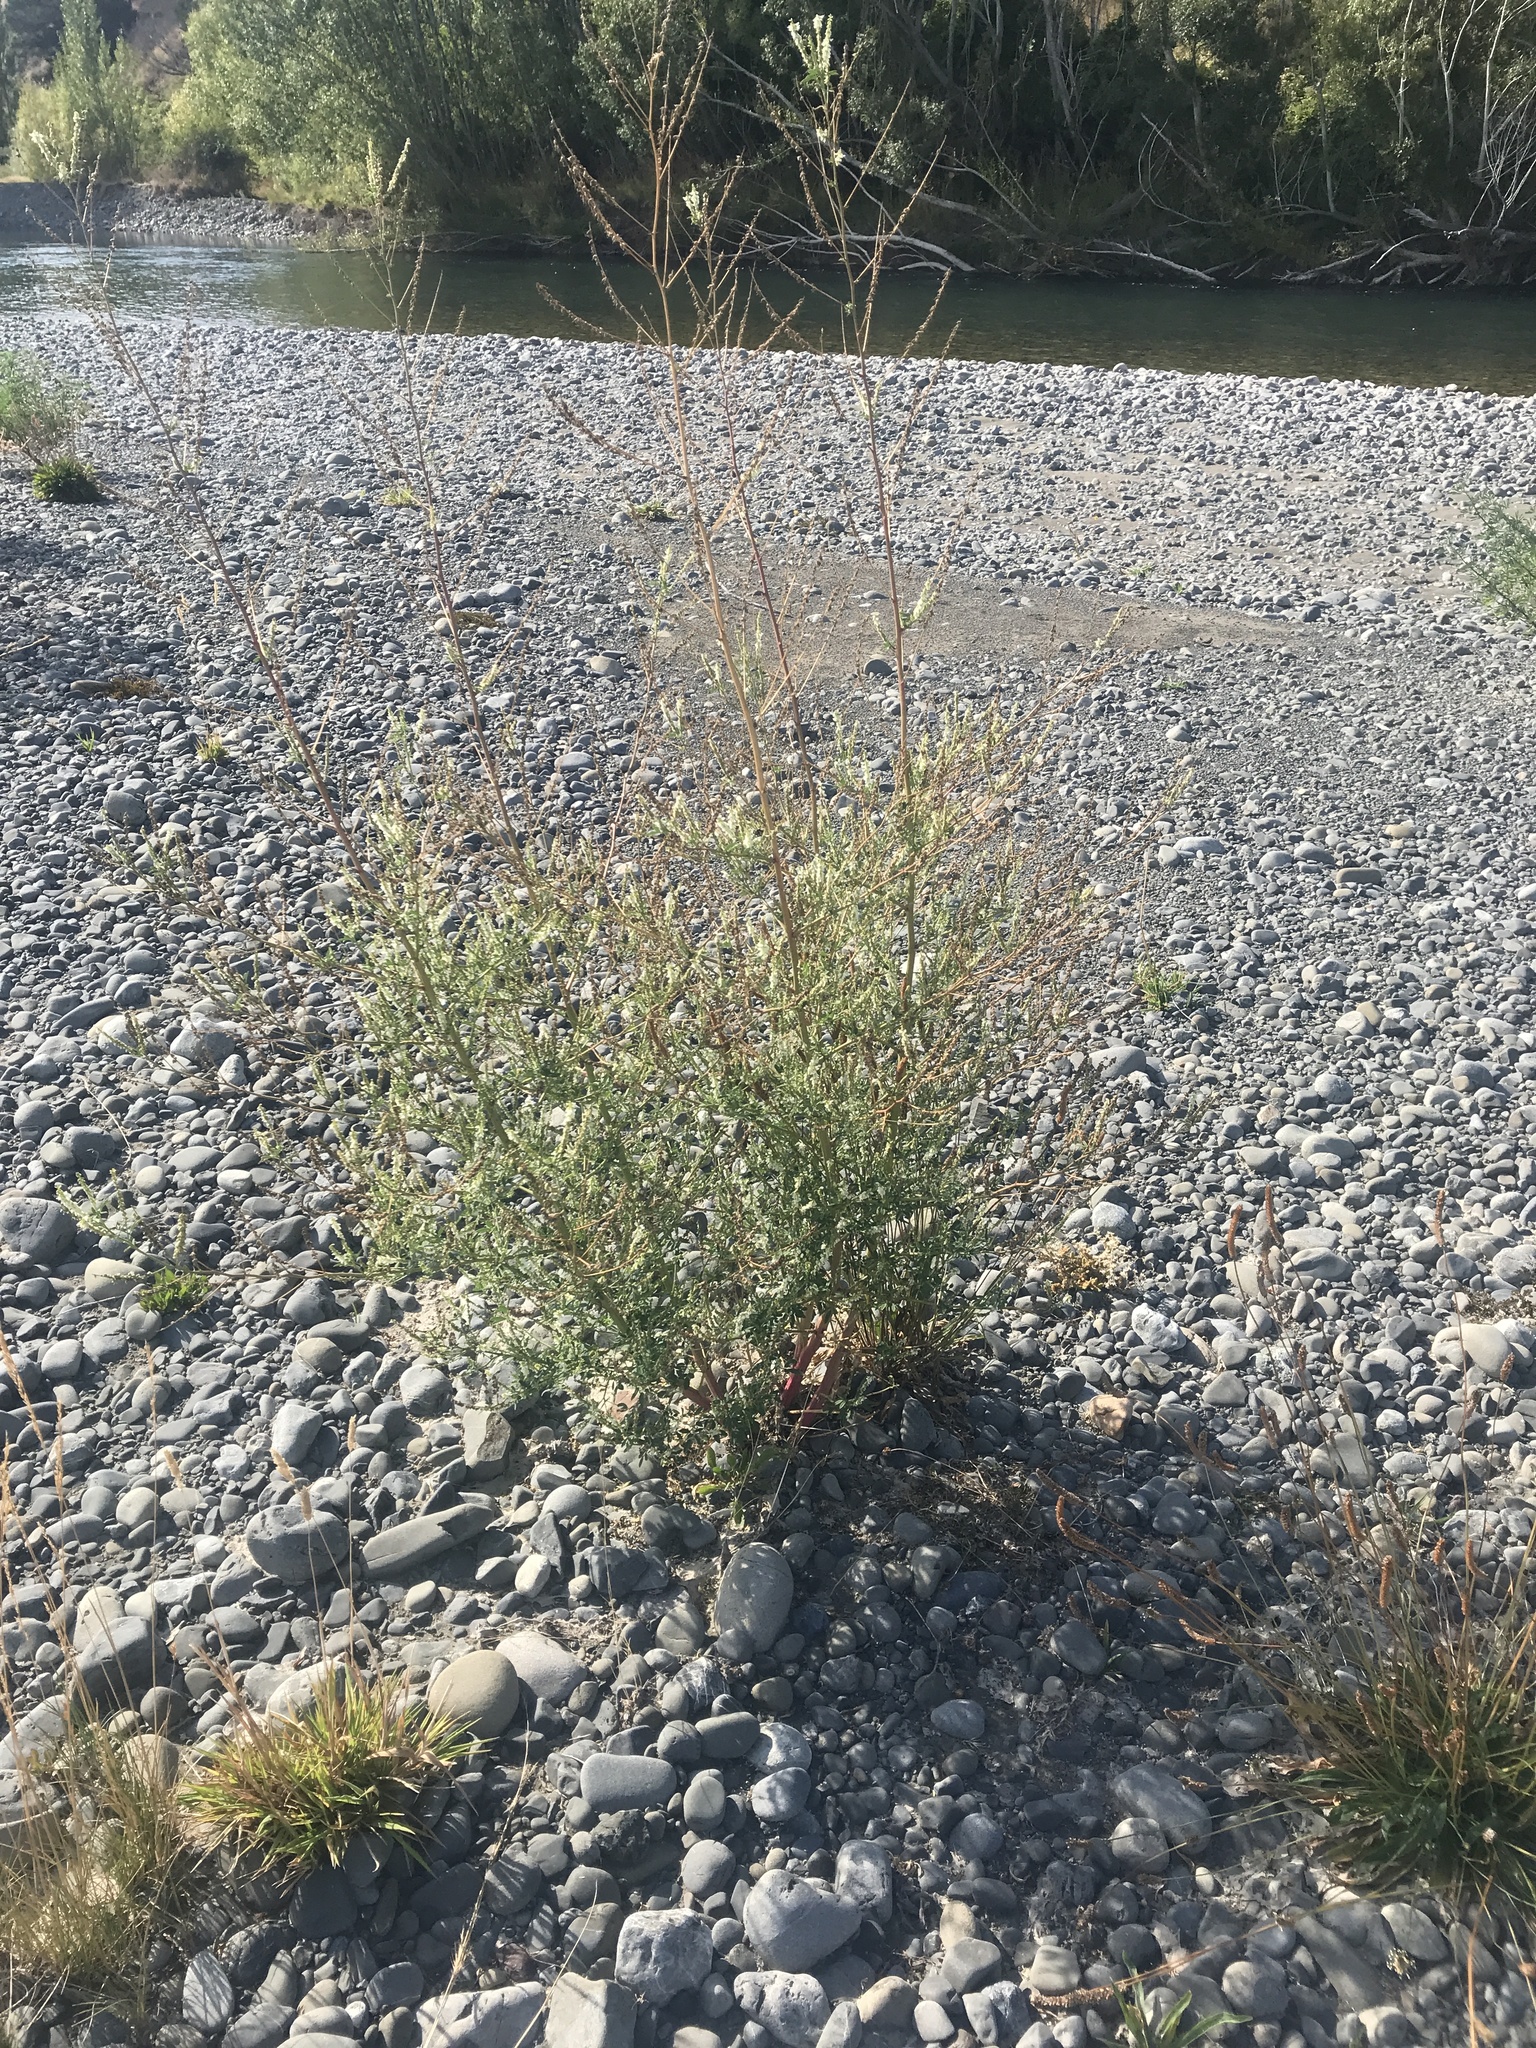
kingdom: Plantae
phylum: Tracheophyta
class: Magnoliopsida
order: Fabales
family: Fabaceae
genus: Melilotus
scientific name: Melilotus albus
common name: White melilot
